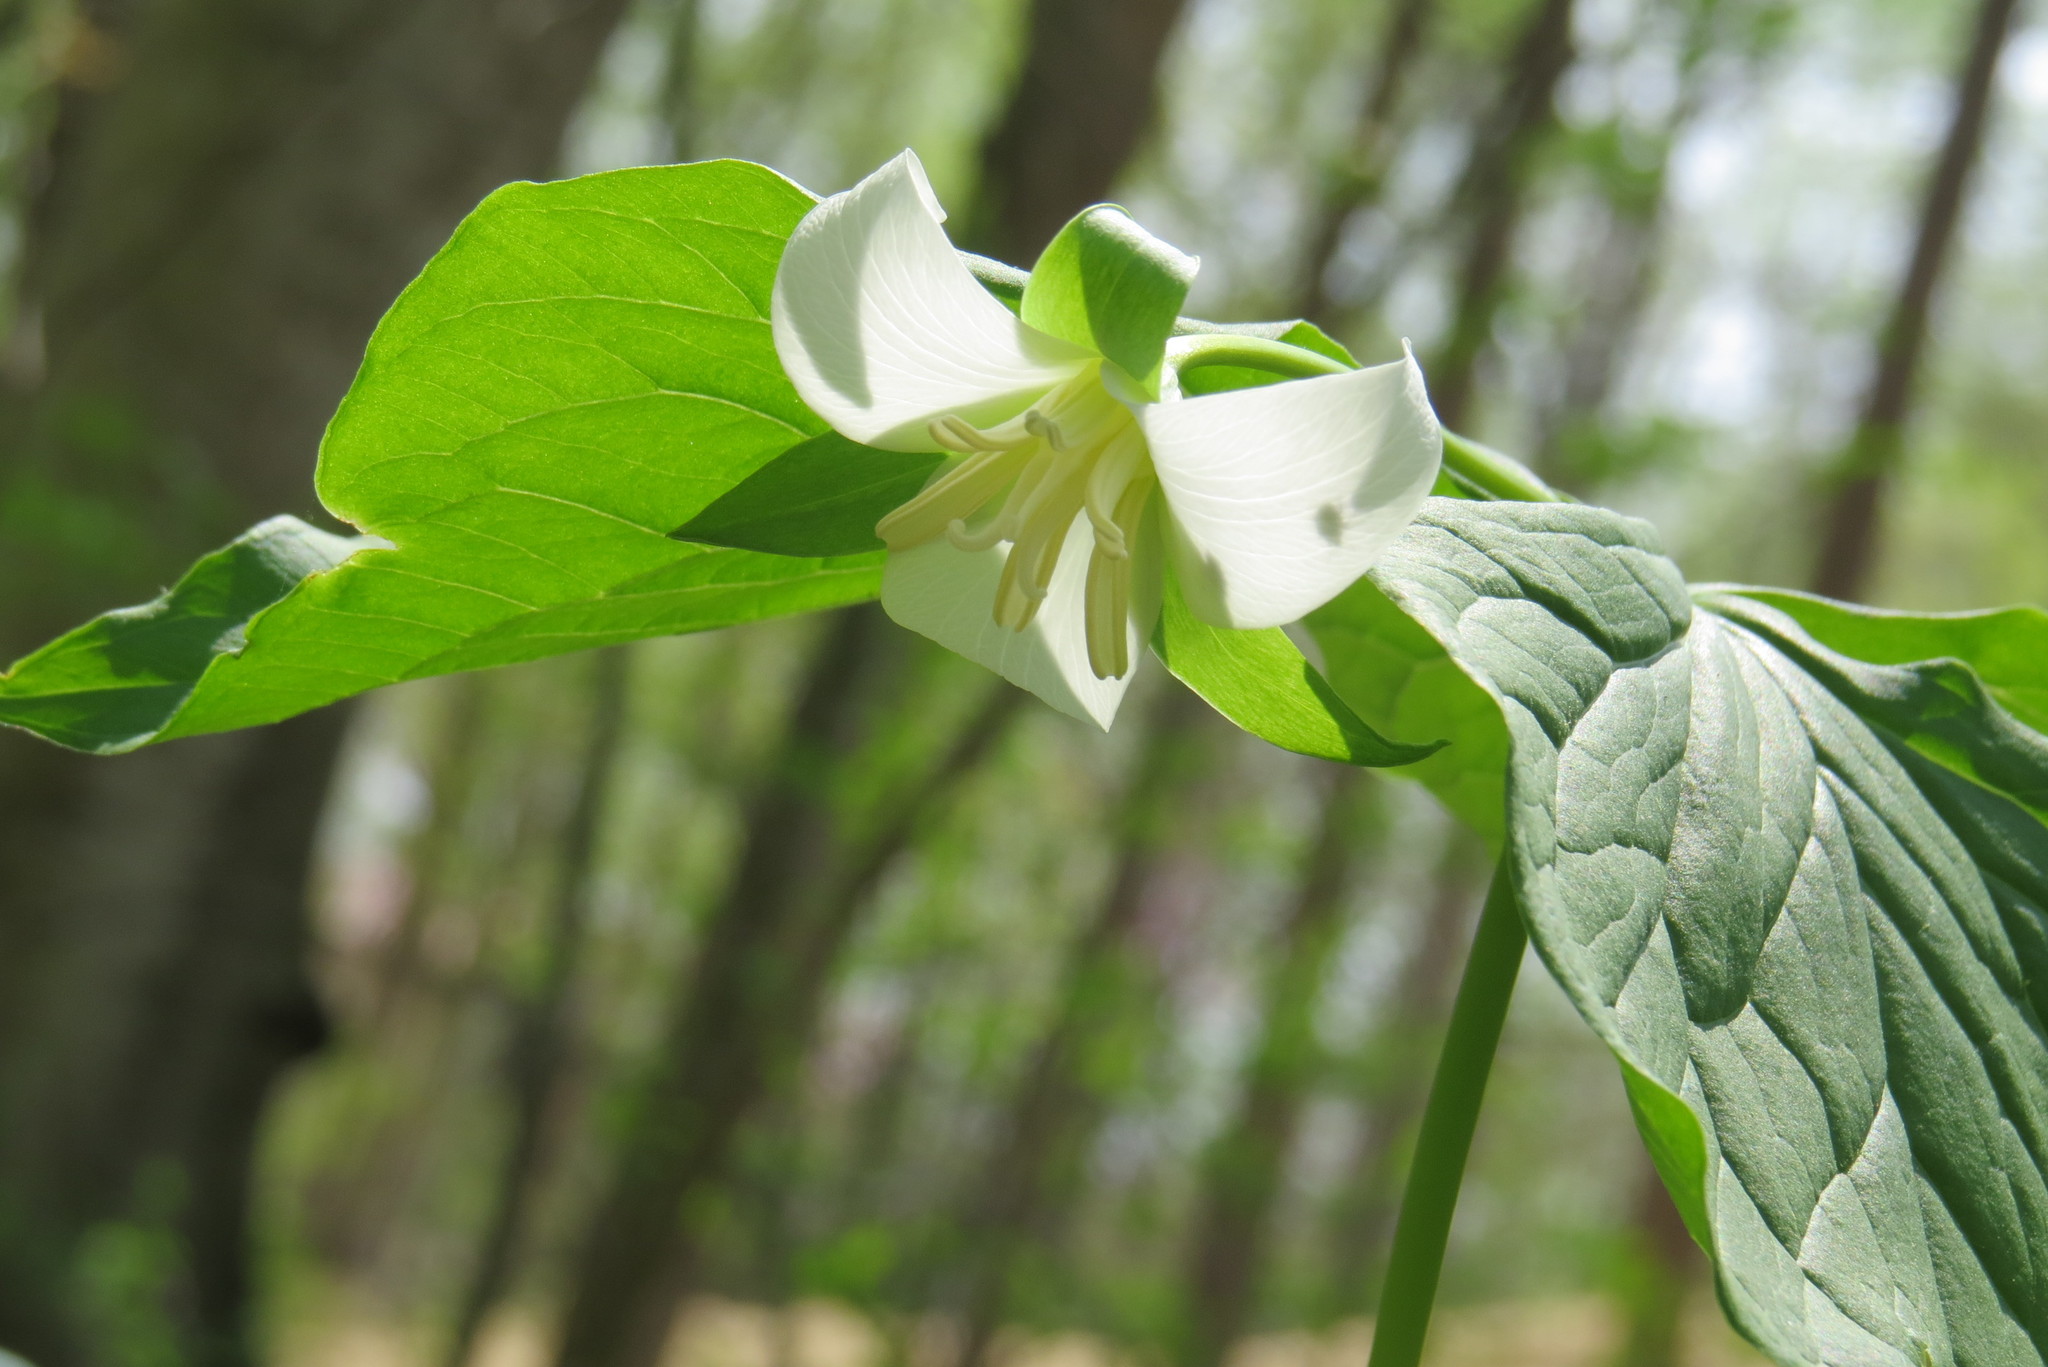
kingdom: Plantae
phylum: Tracheophyta
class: Liliopsida
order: Liliales
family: Melanthiaceae
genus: Trillium
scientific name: Trillium flexipes
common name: Drooping trillium
